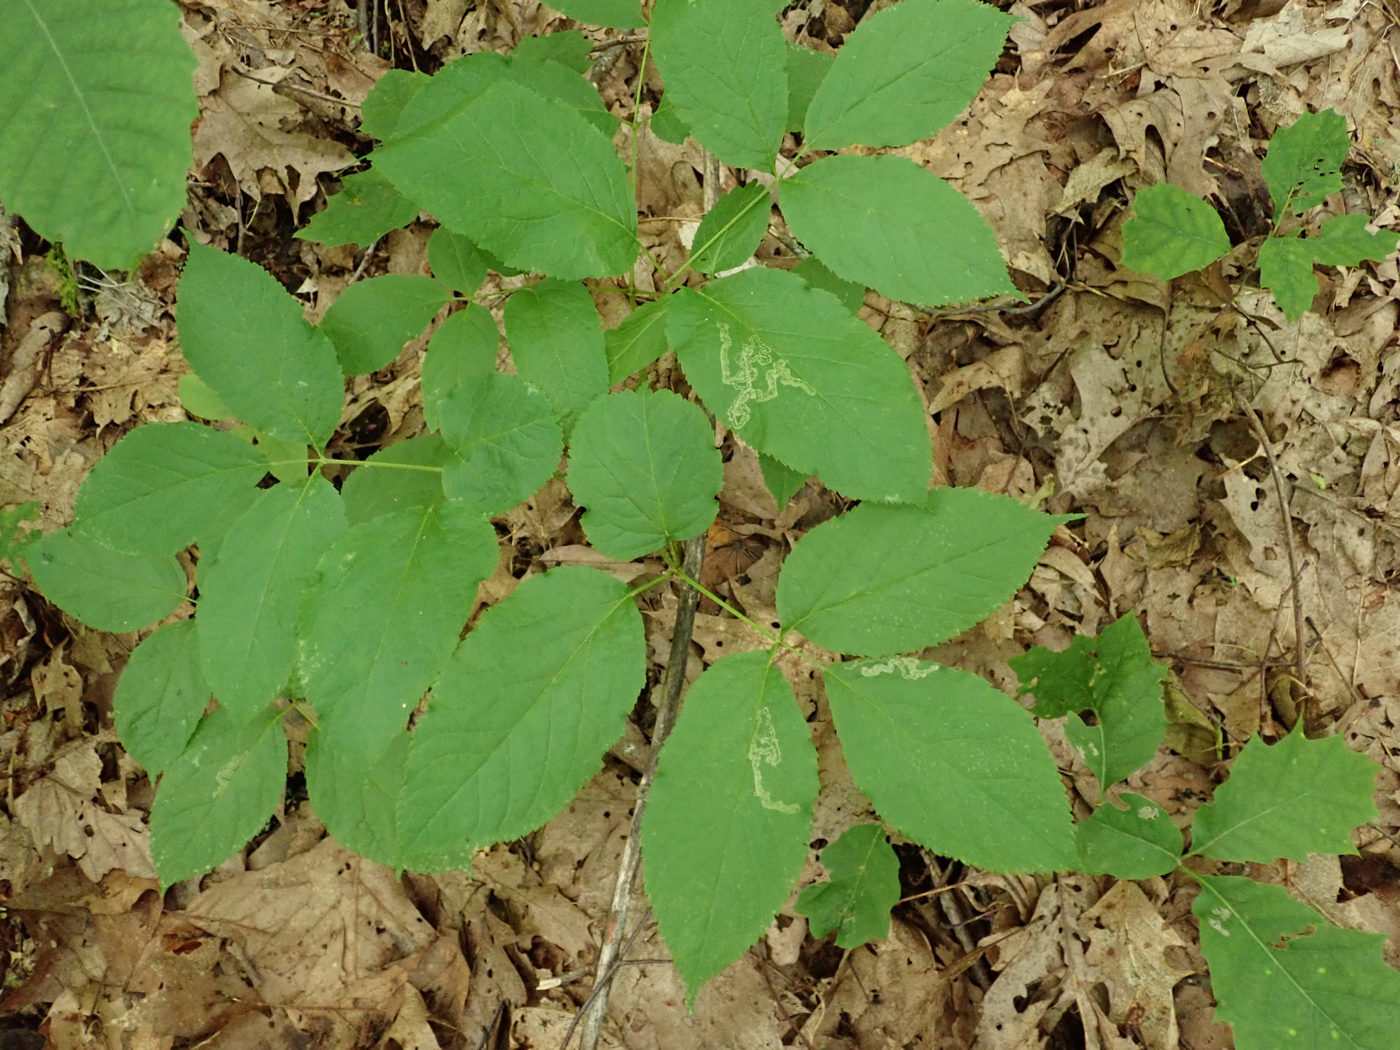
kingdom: Animalia
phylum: Arthropoda
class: Insecta
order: Diptera
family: Agromyzidae
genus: Phytomyza
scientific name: Phytomyza aralivora
